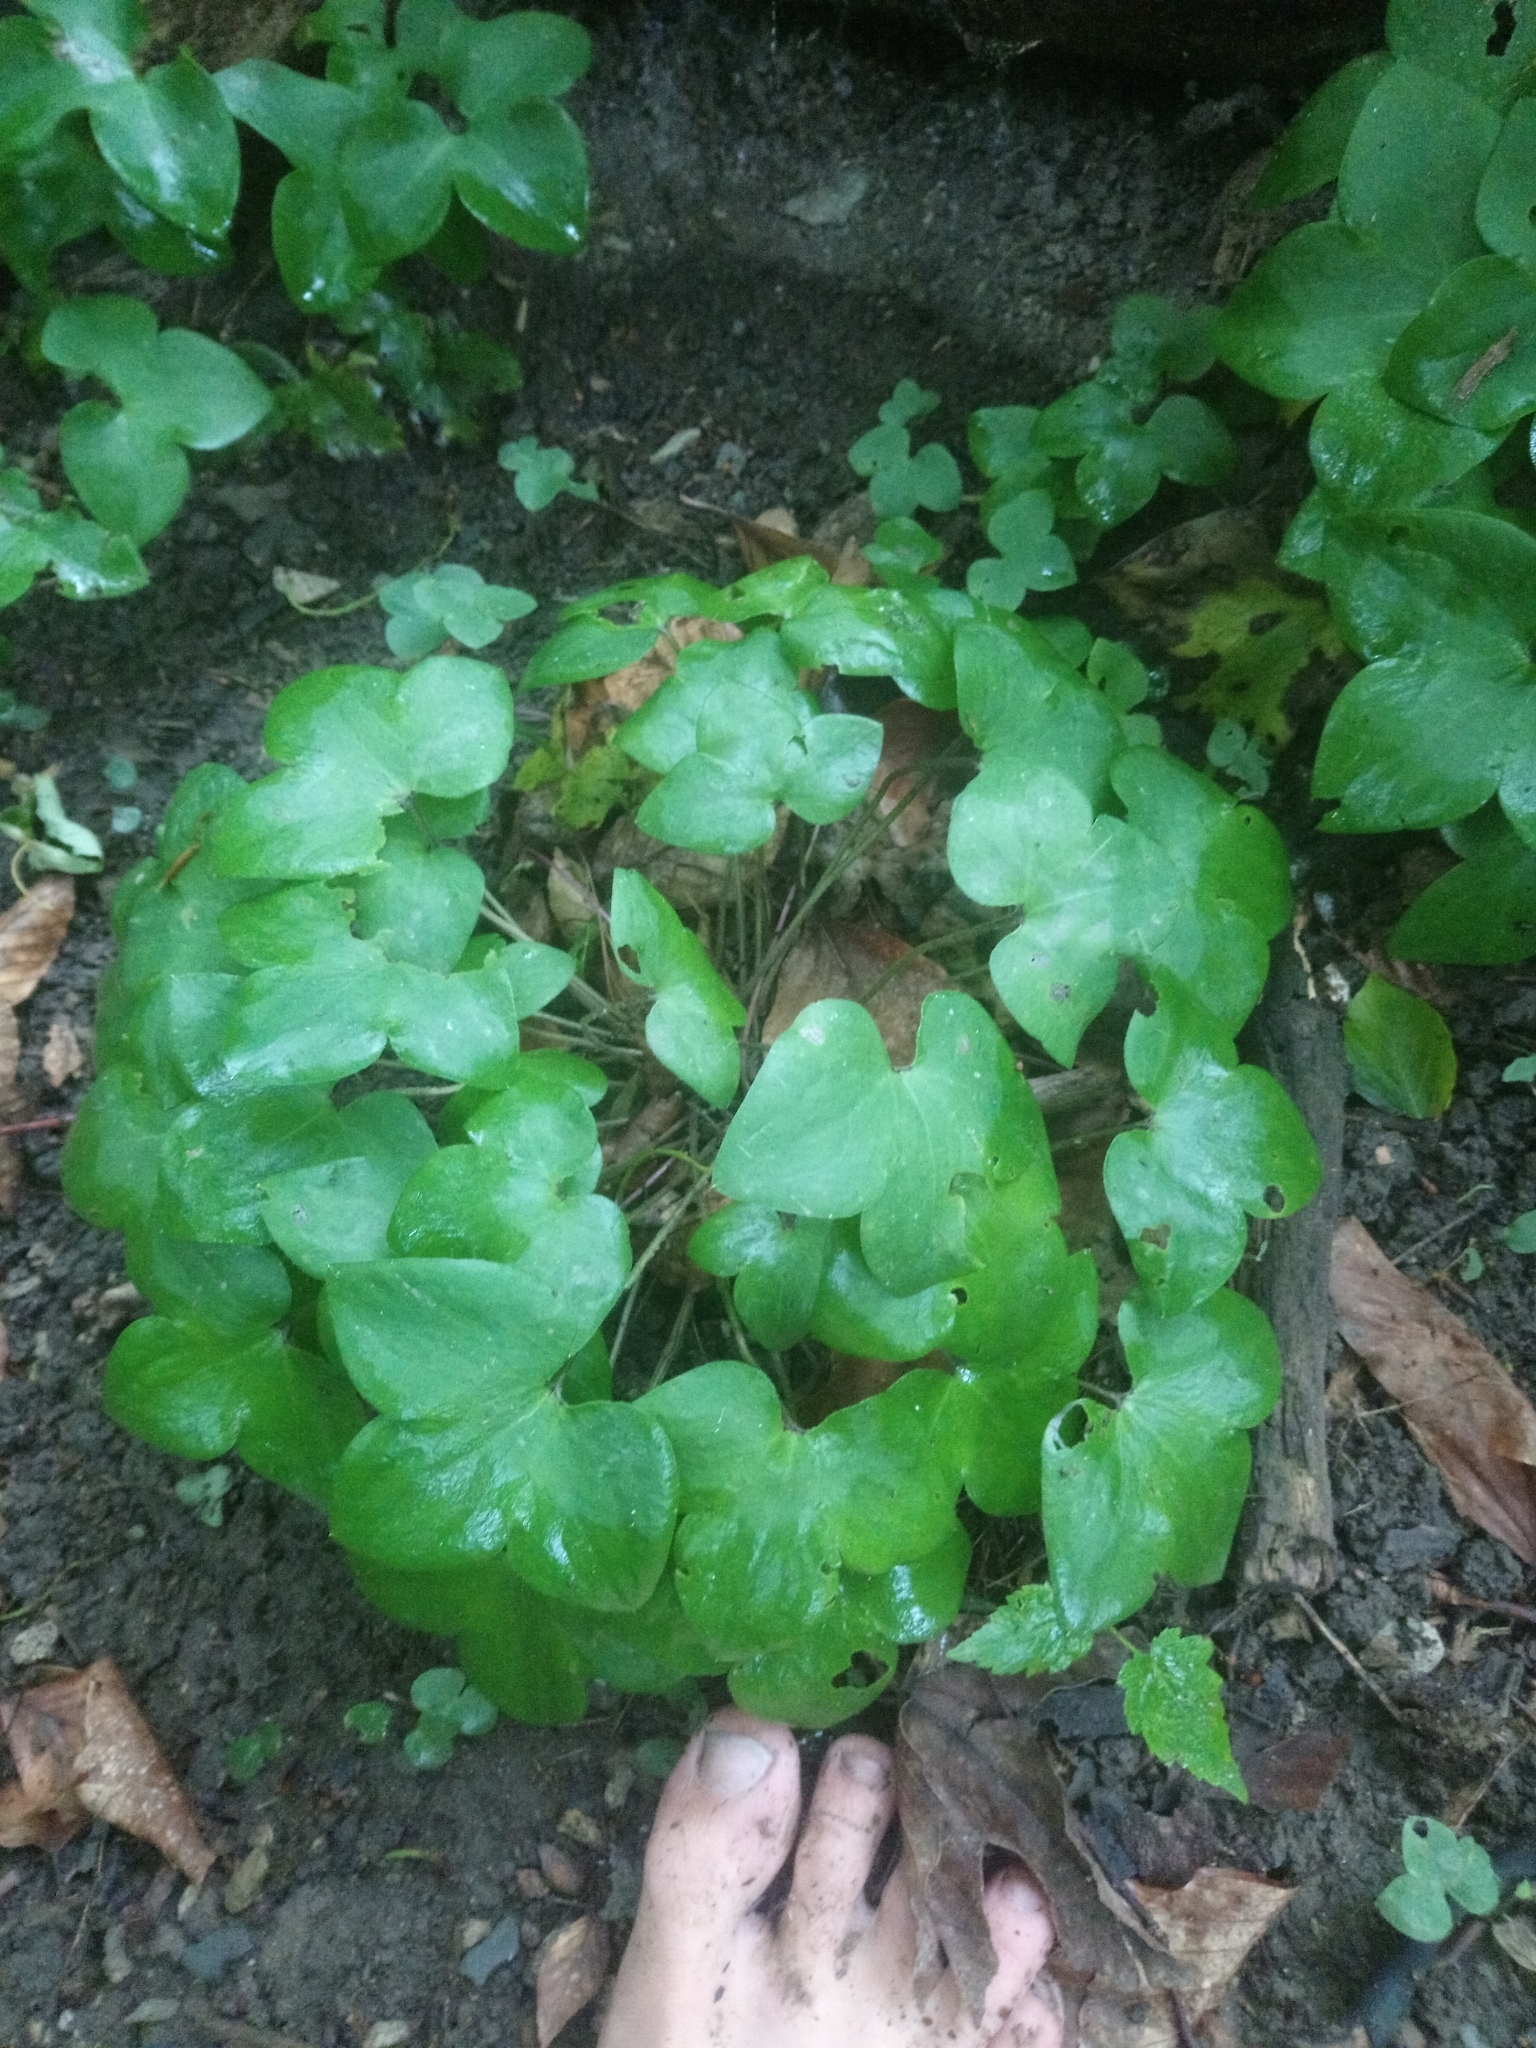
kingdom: Plantae
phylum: Tracheophyta
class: Magnoliopsida
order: Ranunculales
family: Ranunculaceae
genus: Hepatica
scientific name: Hepatica nobilis
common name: Liverleaf
